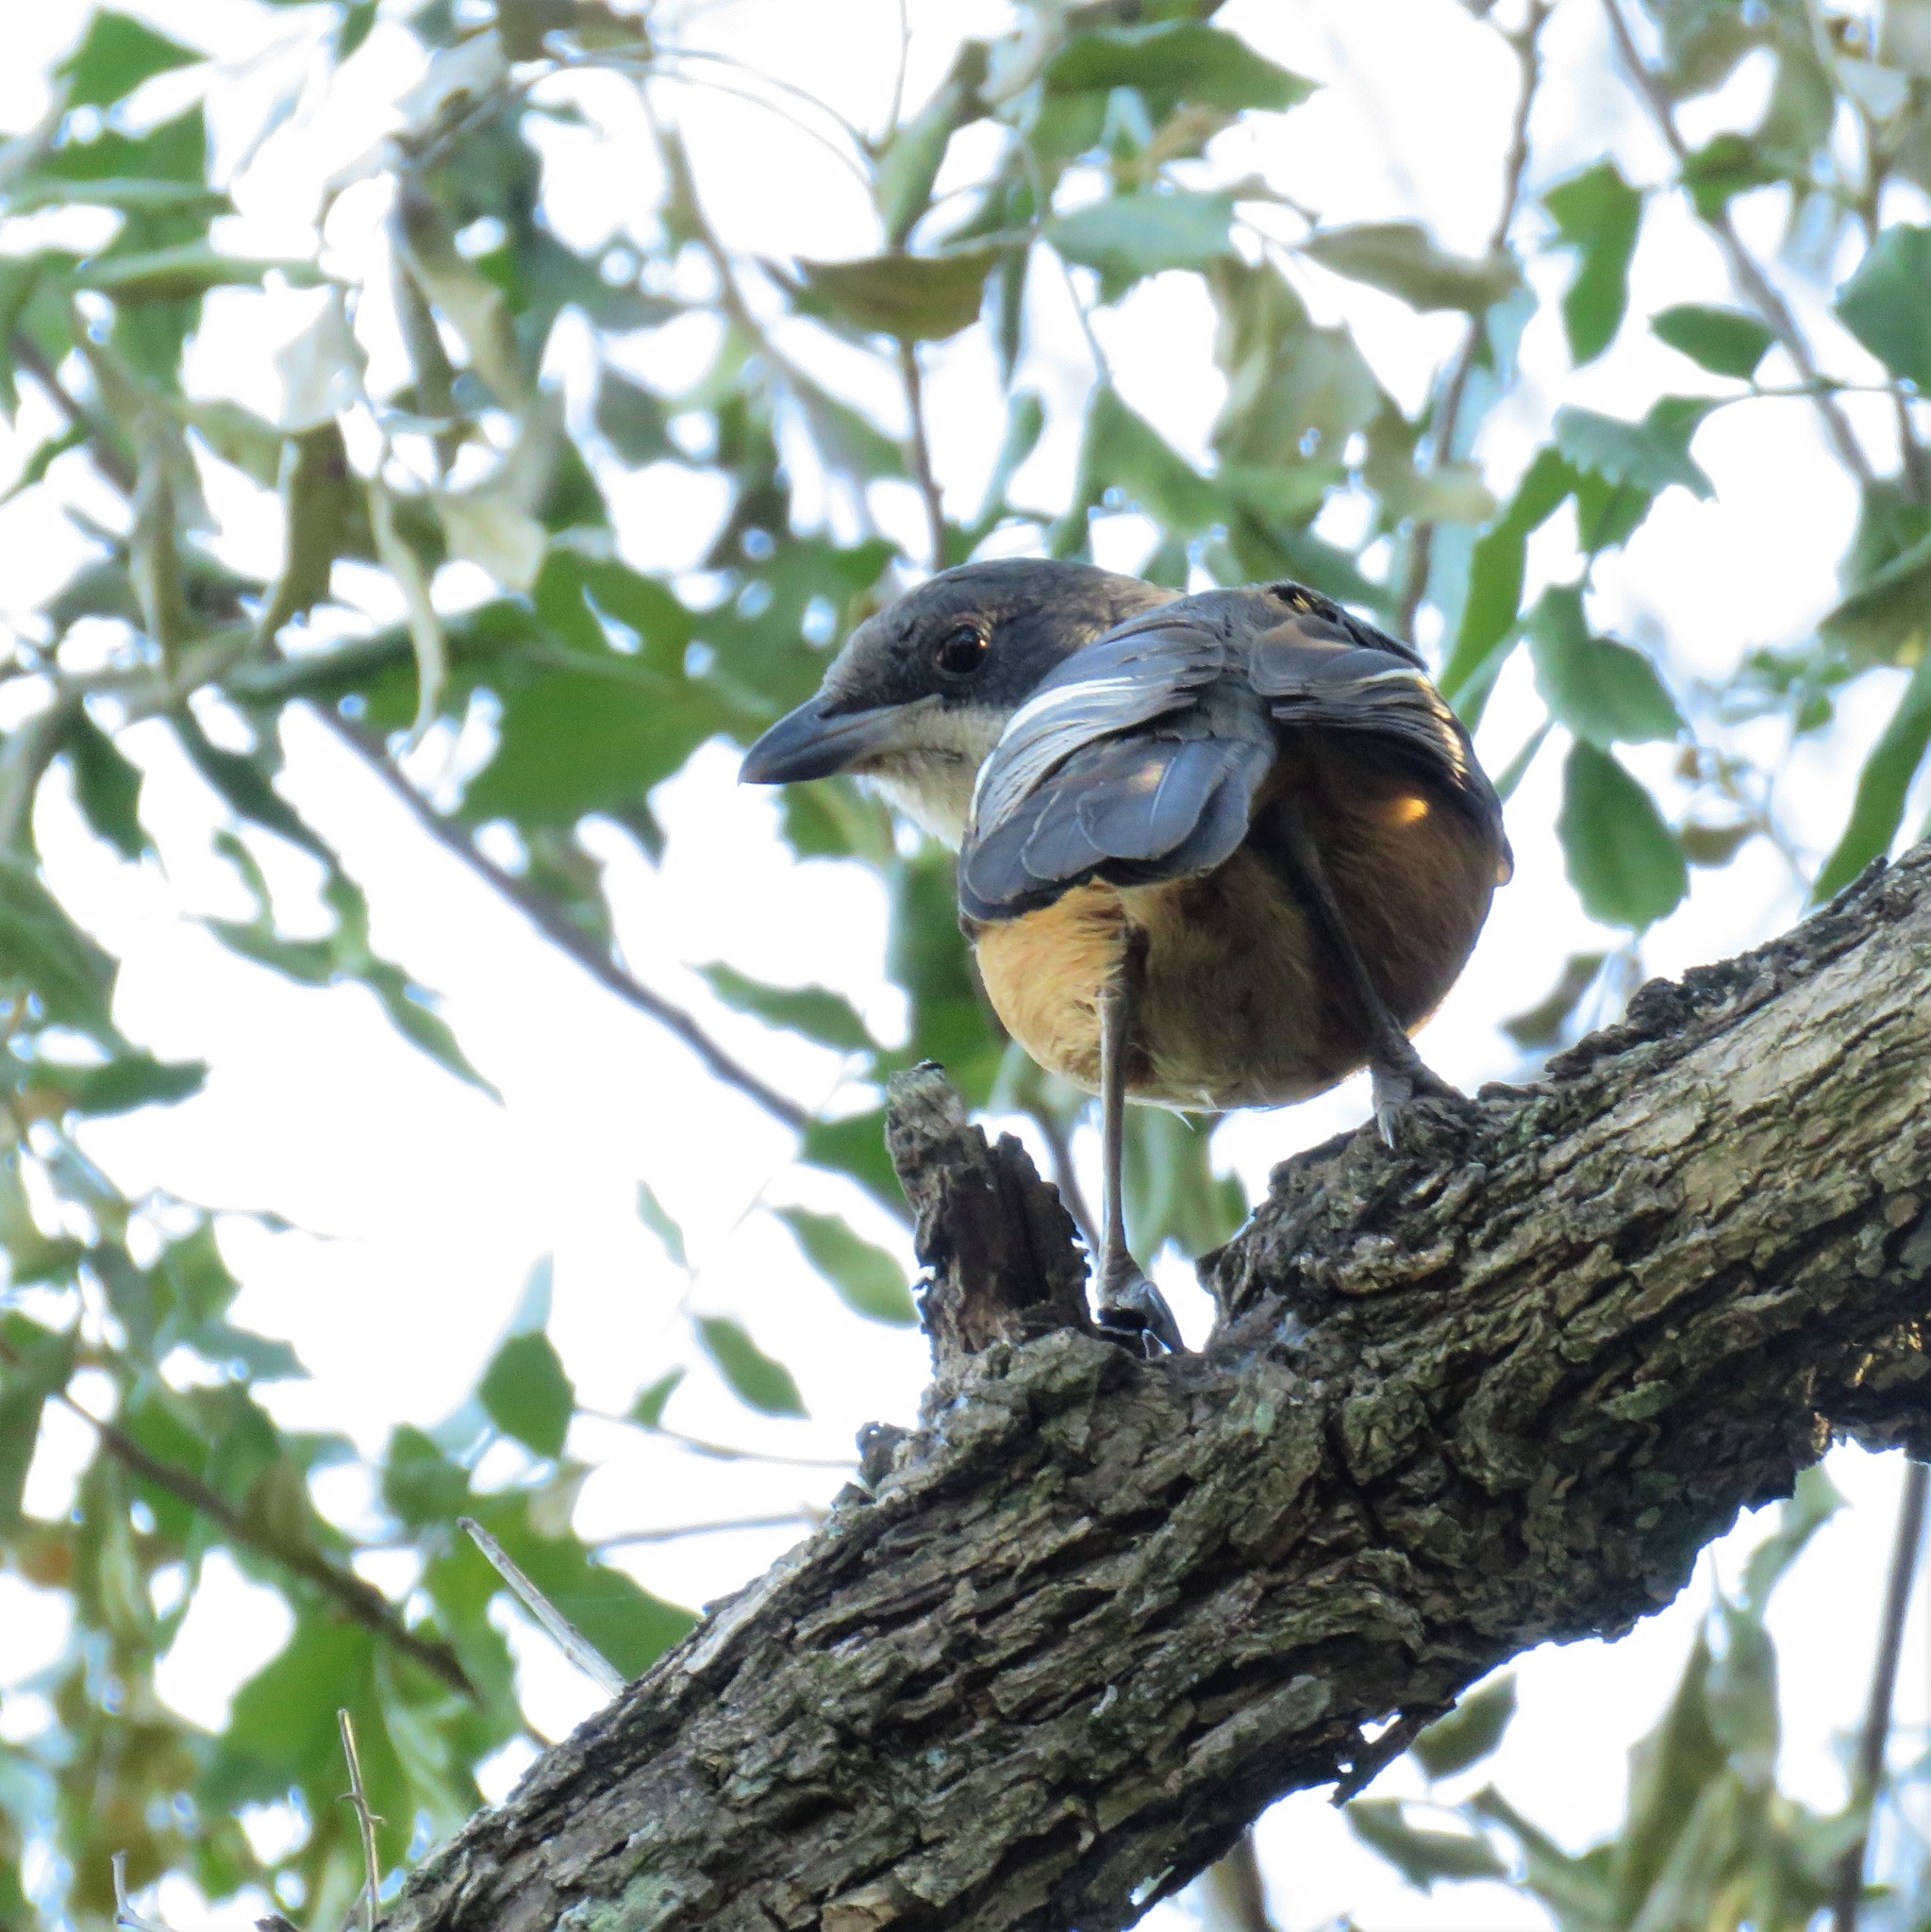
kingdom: Animalia
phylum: Chordata
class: Aves
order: Passeriformes
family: Malaconotidae
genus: Laniarius
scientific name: Laniarius ferrugineus
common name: Southern boubou
